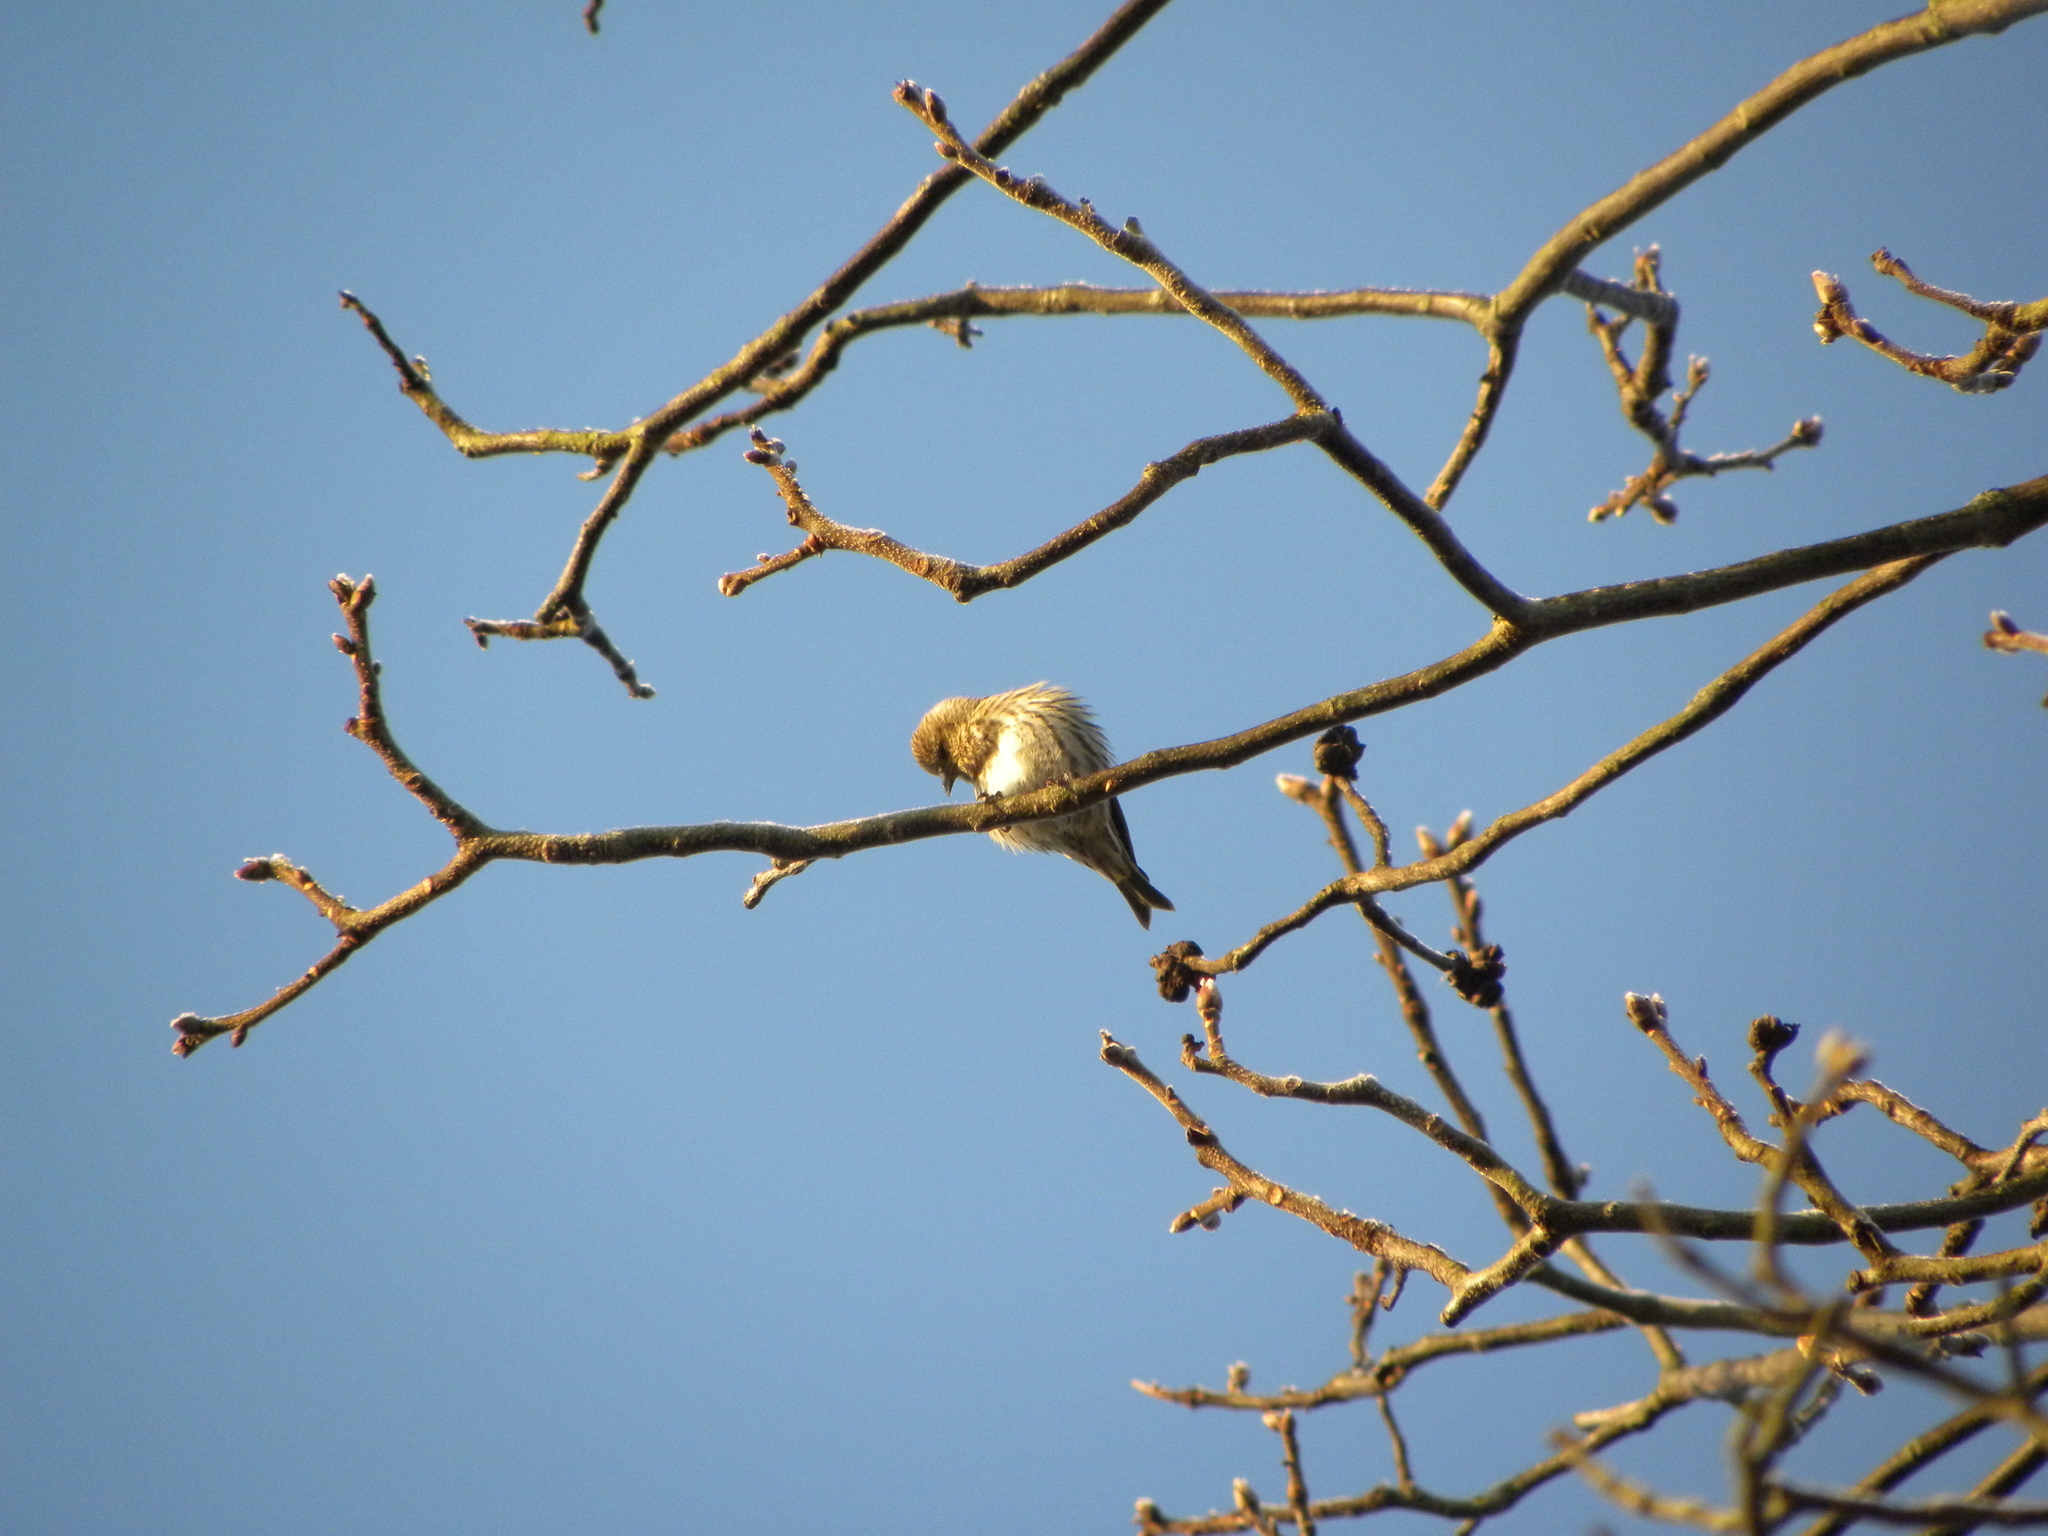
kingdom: Animalia
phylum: Chordata
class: Aves
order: Passeriformes
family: Fringillidae
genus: Spinus
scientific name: Spinus pinus
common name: Pine siskin
